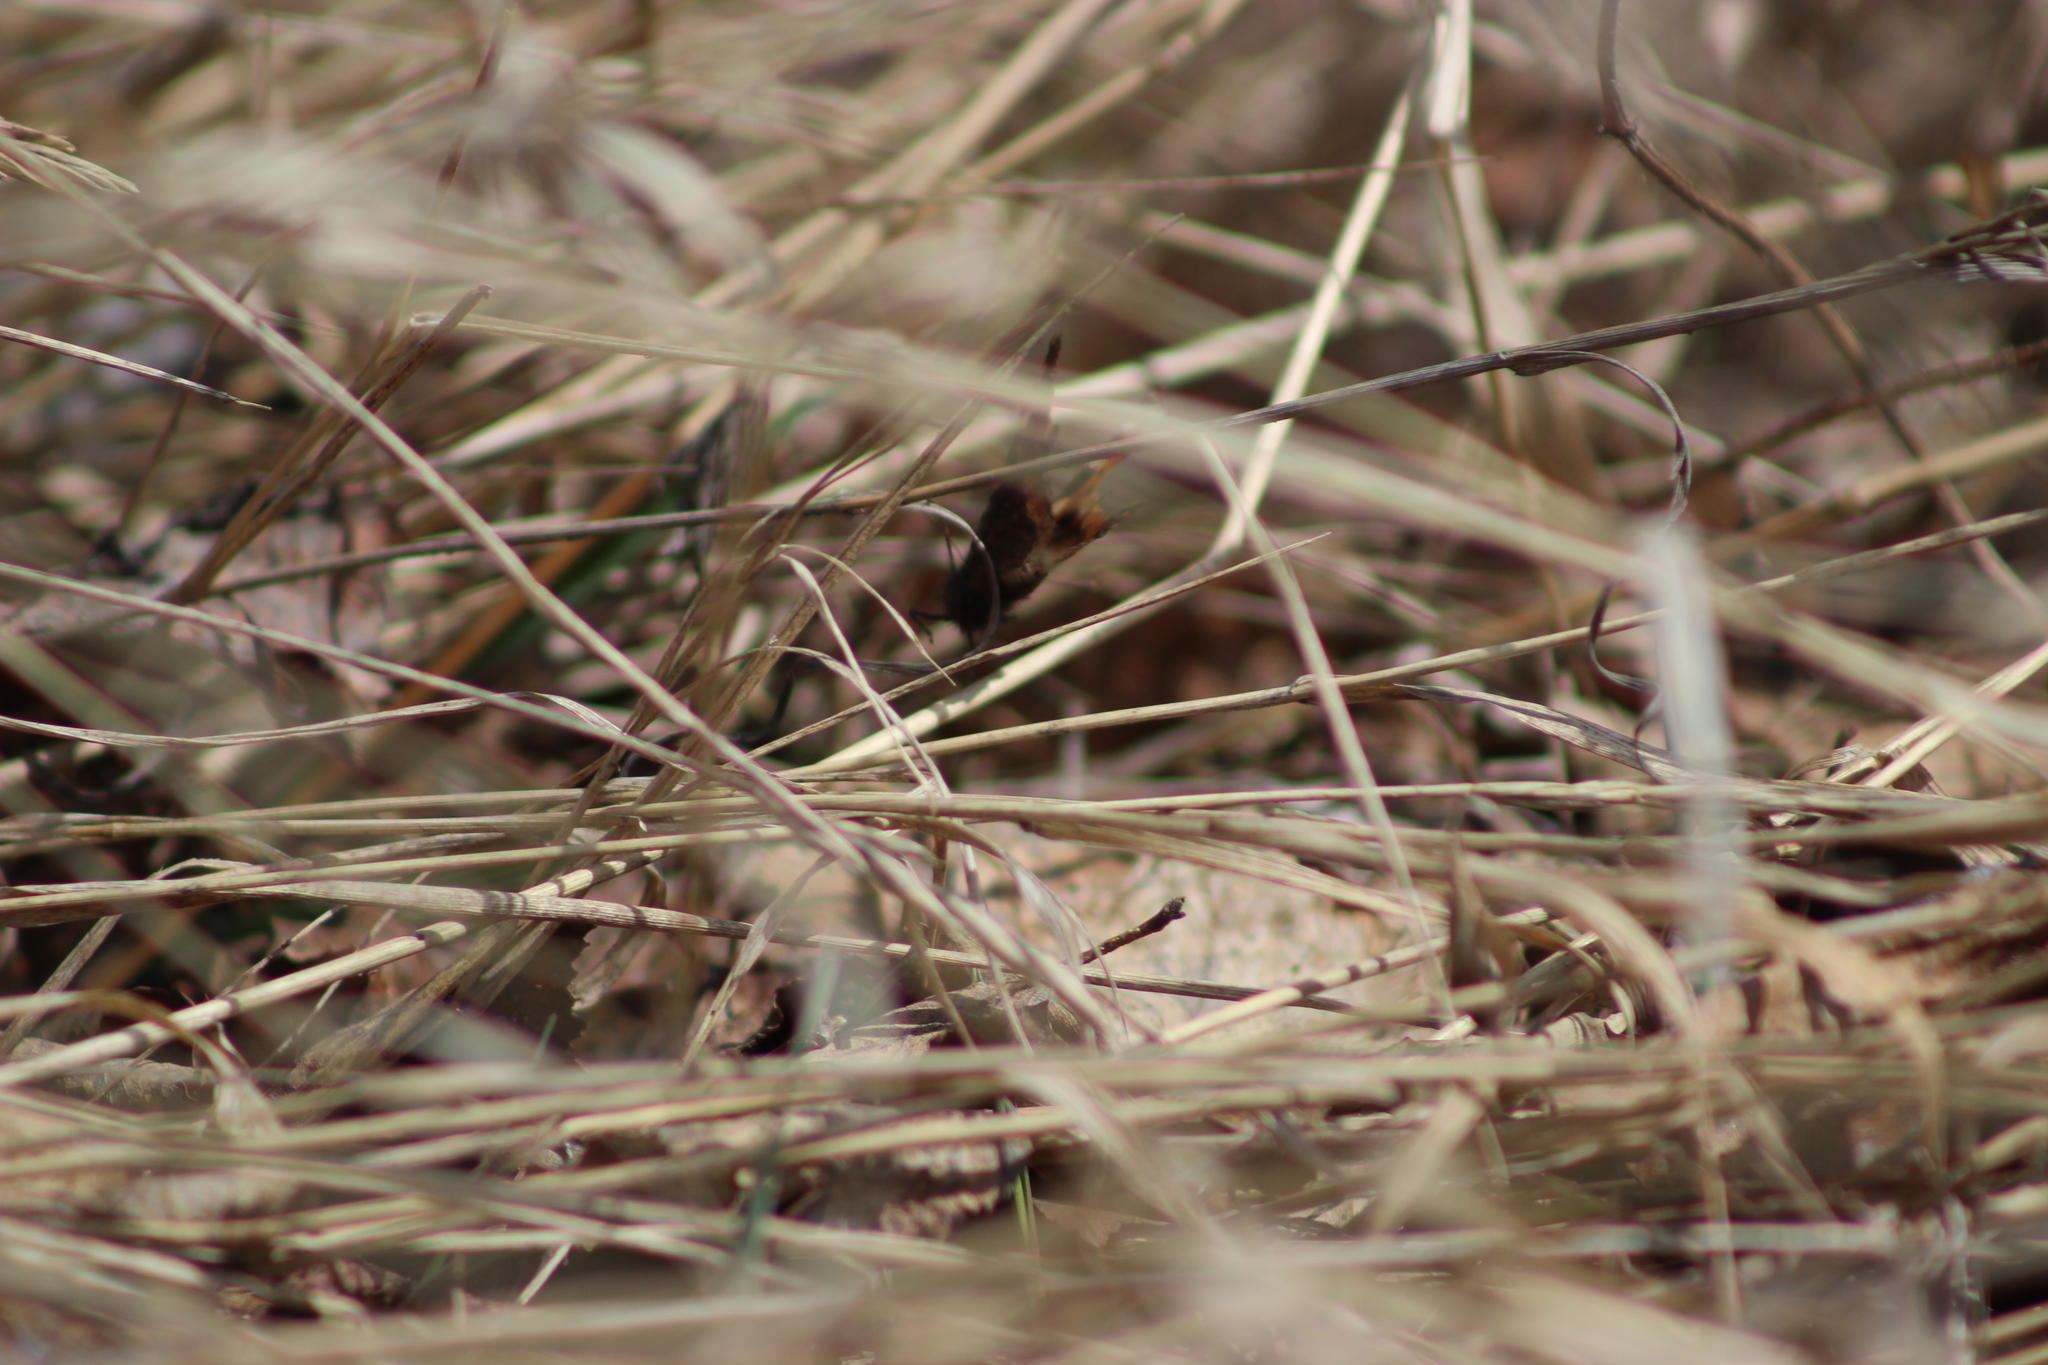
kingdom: Animalia
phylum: Arthropoda
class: Insecta
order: Lepidoptera
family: Nymphalidae
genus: Aglais
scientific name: Aglais urticae
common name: Small tortoiseshell
